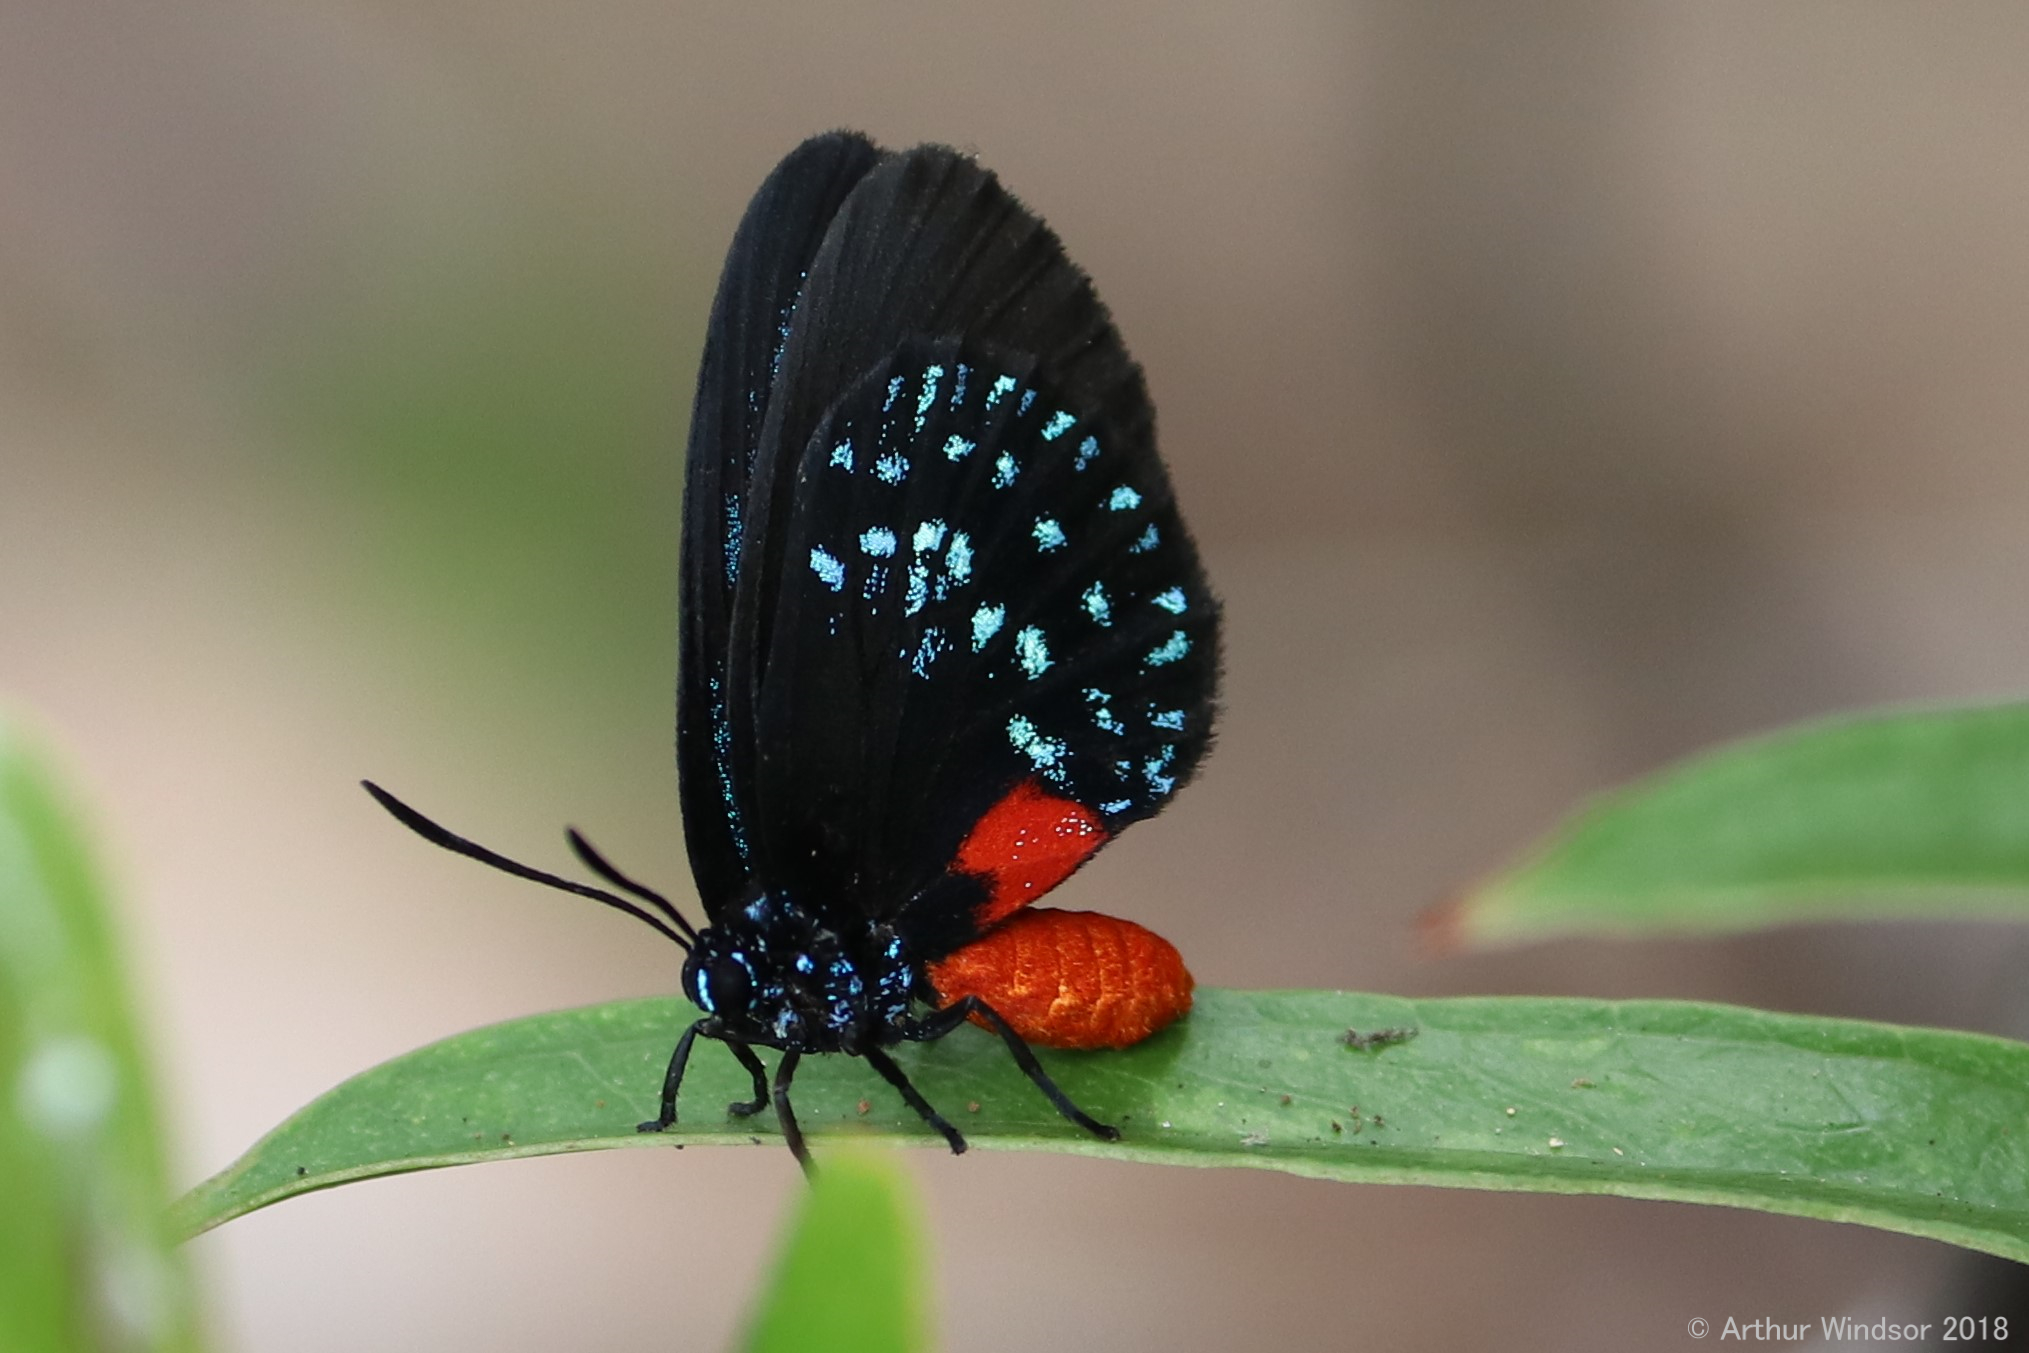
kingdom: Animalia
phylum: Arthropoda
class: Insecta
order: Lepidoptera
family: Lycaenidae
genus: Eumaeus
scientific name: Eumaeus atala
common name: Atala
